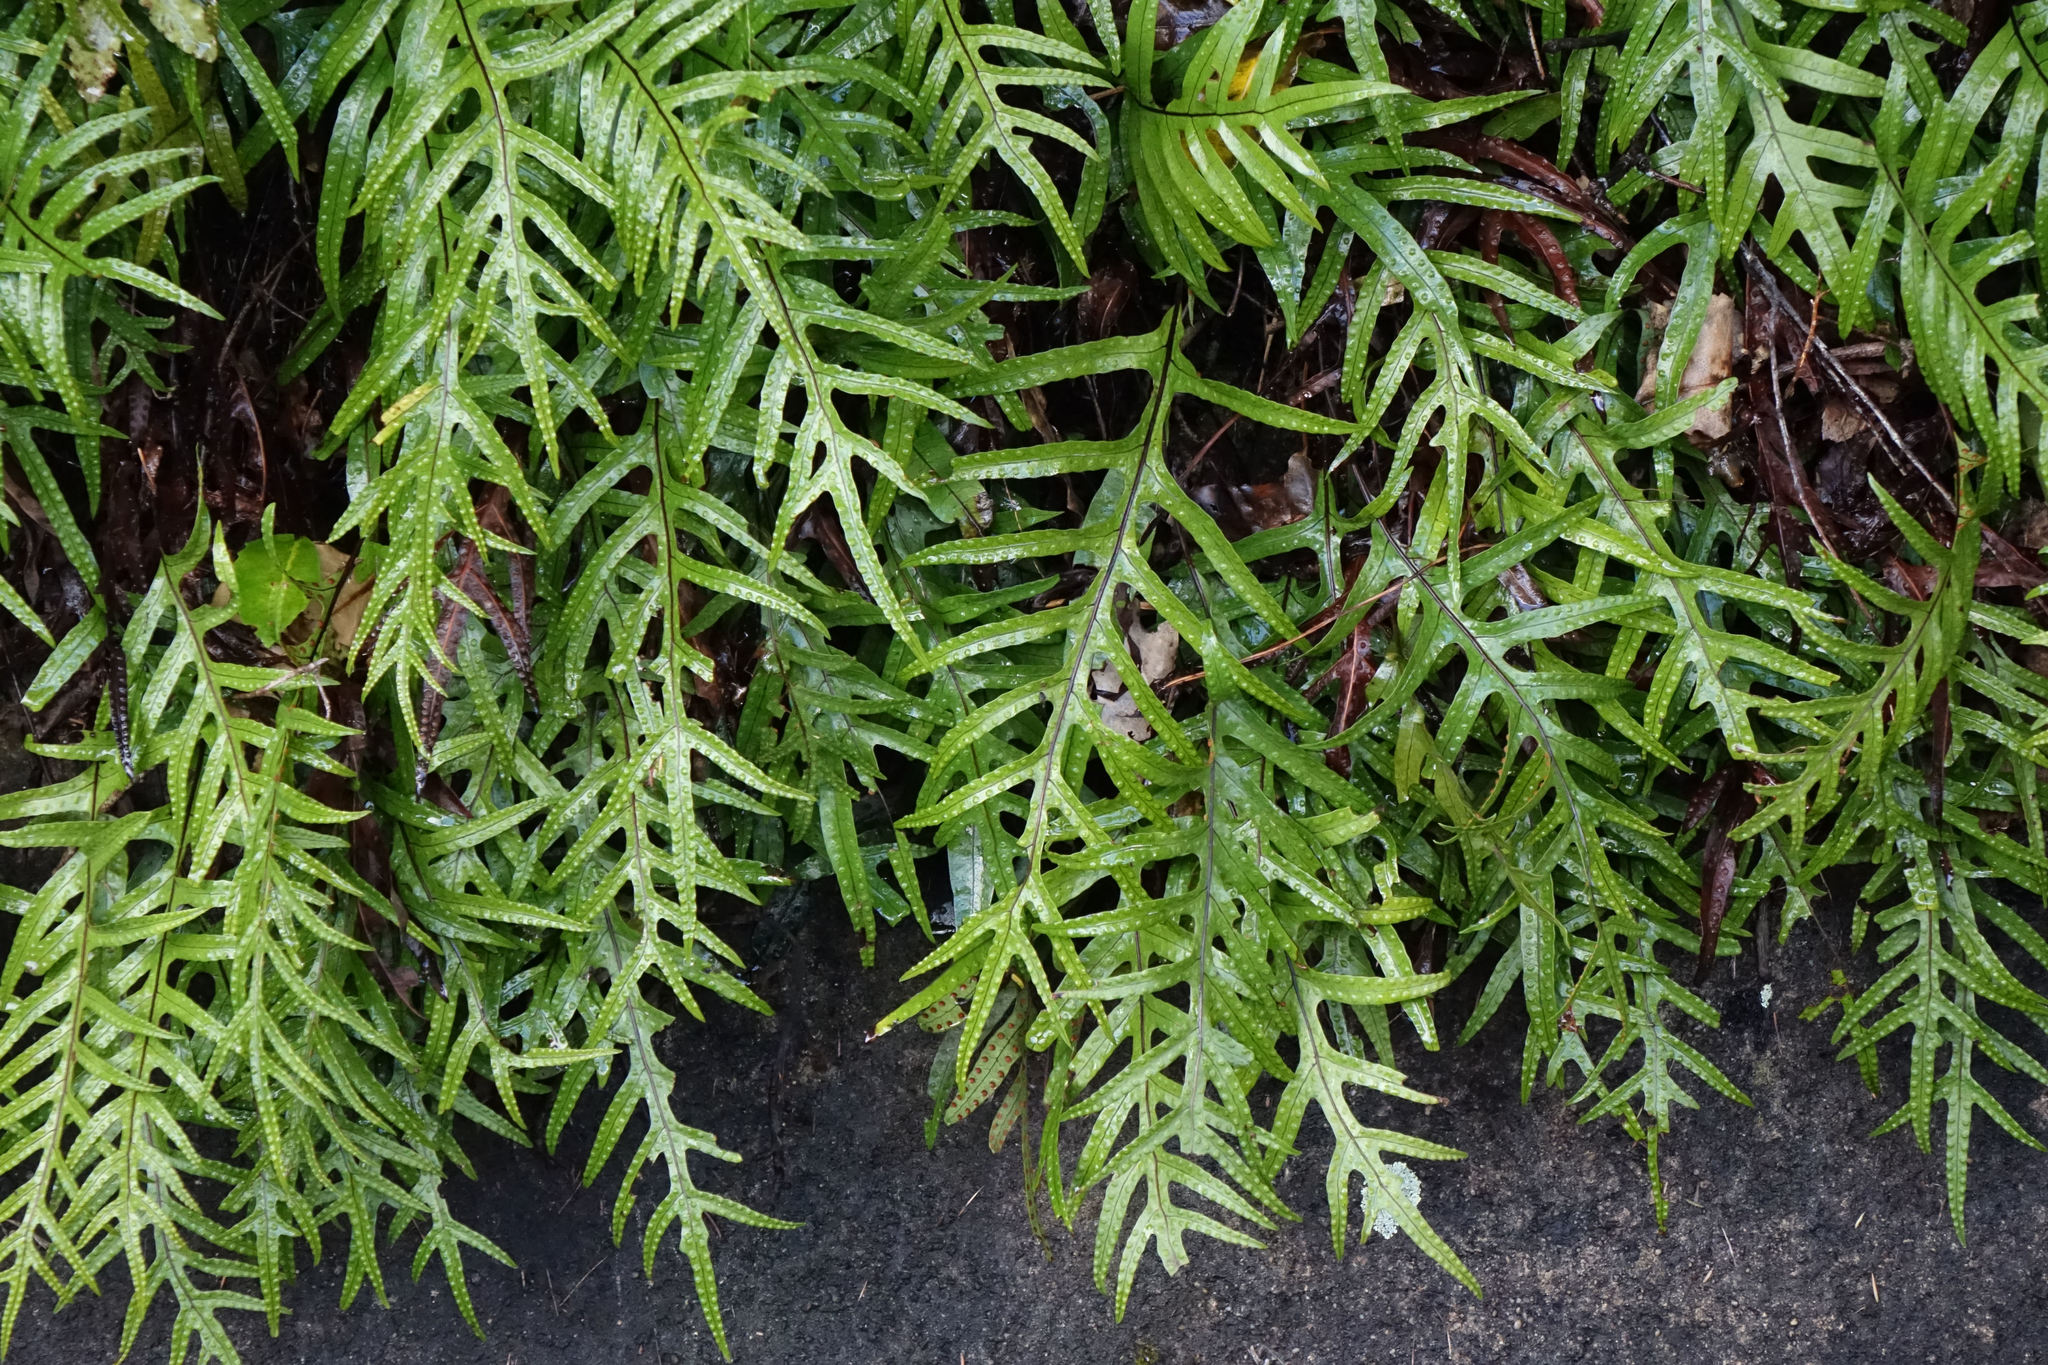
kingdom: Plantae
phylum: Tracheophyta
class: Polypodiopsida
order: Polypodiales
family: Polypodiaceae
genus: Lecanopteris
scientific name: Lecanopteris pustulata
